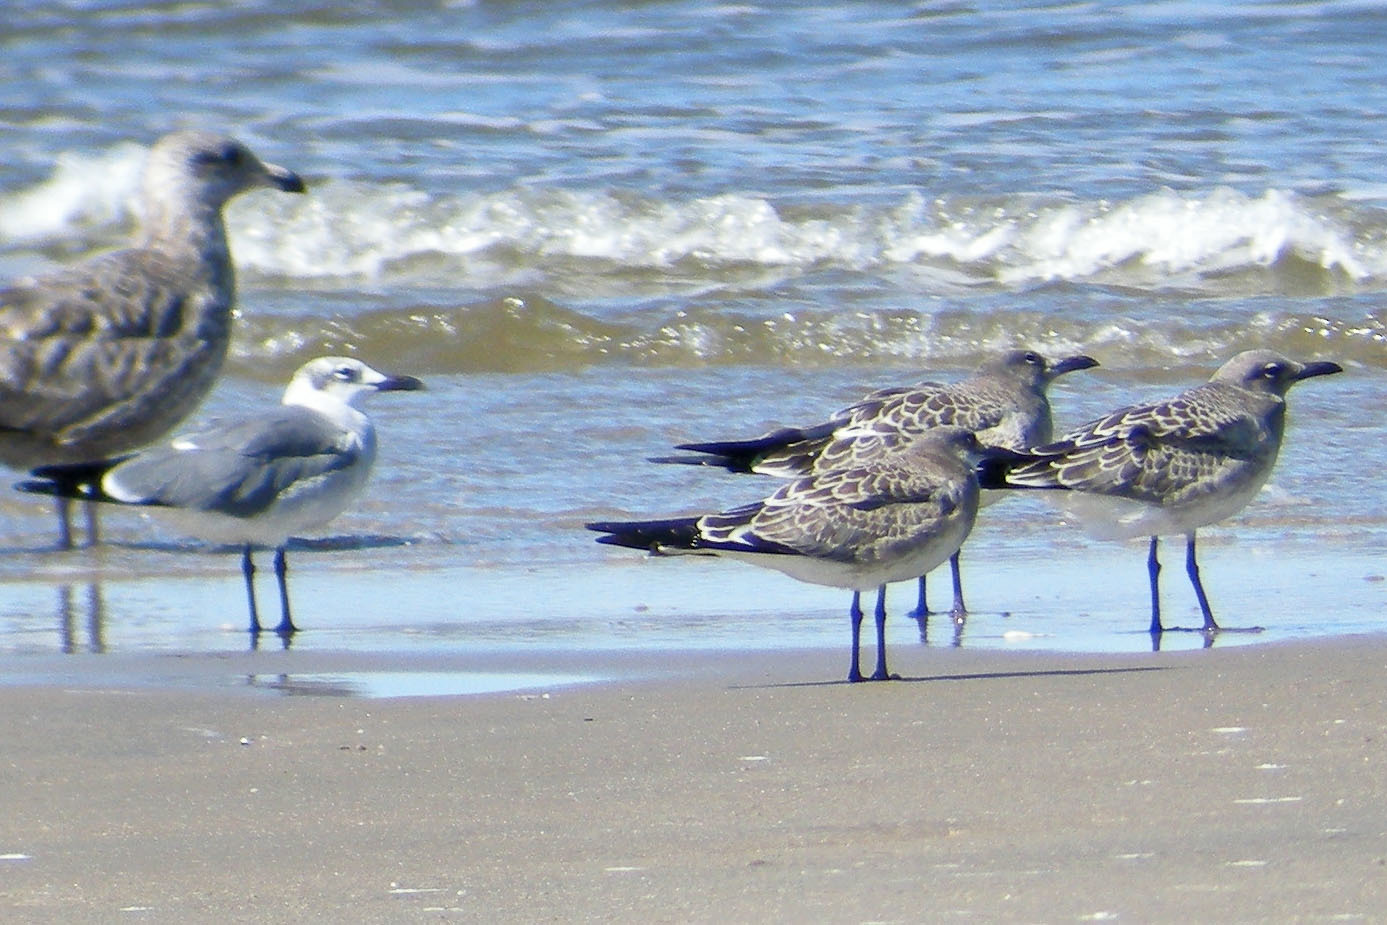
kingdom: Animalia
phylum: Chordata
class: Aves
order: Charadriiformes
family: Laridae
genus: Leucophaeus
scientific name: Leucophaeus atricilla
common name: Laughing gull
